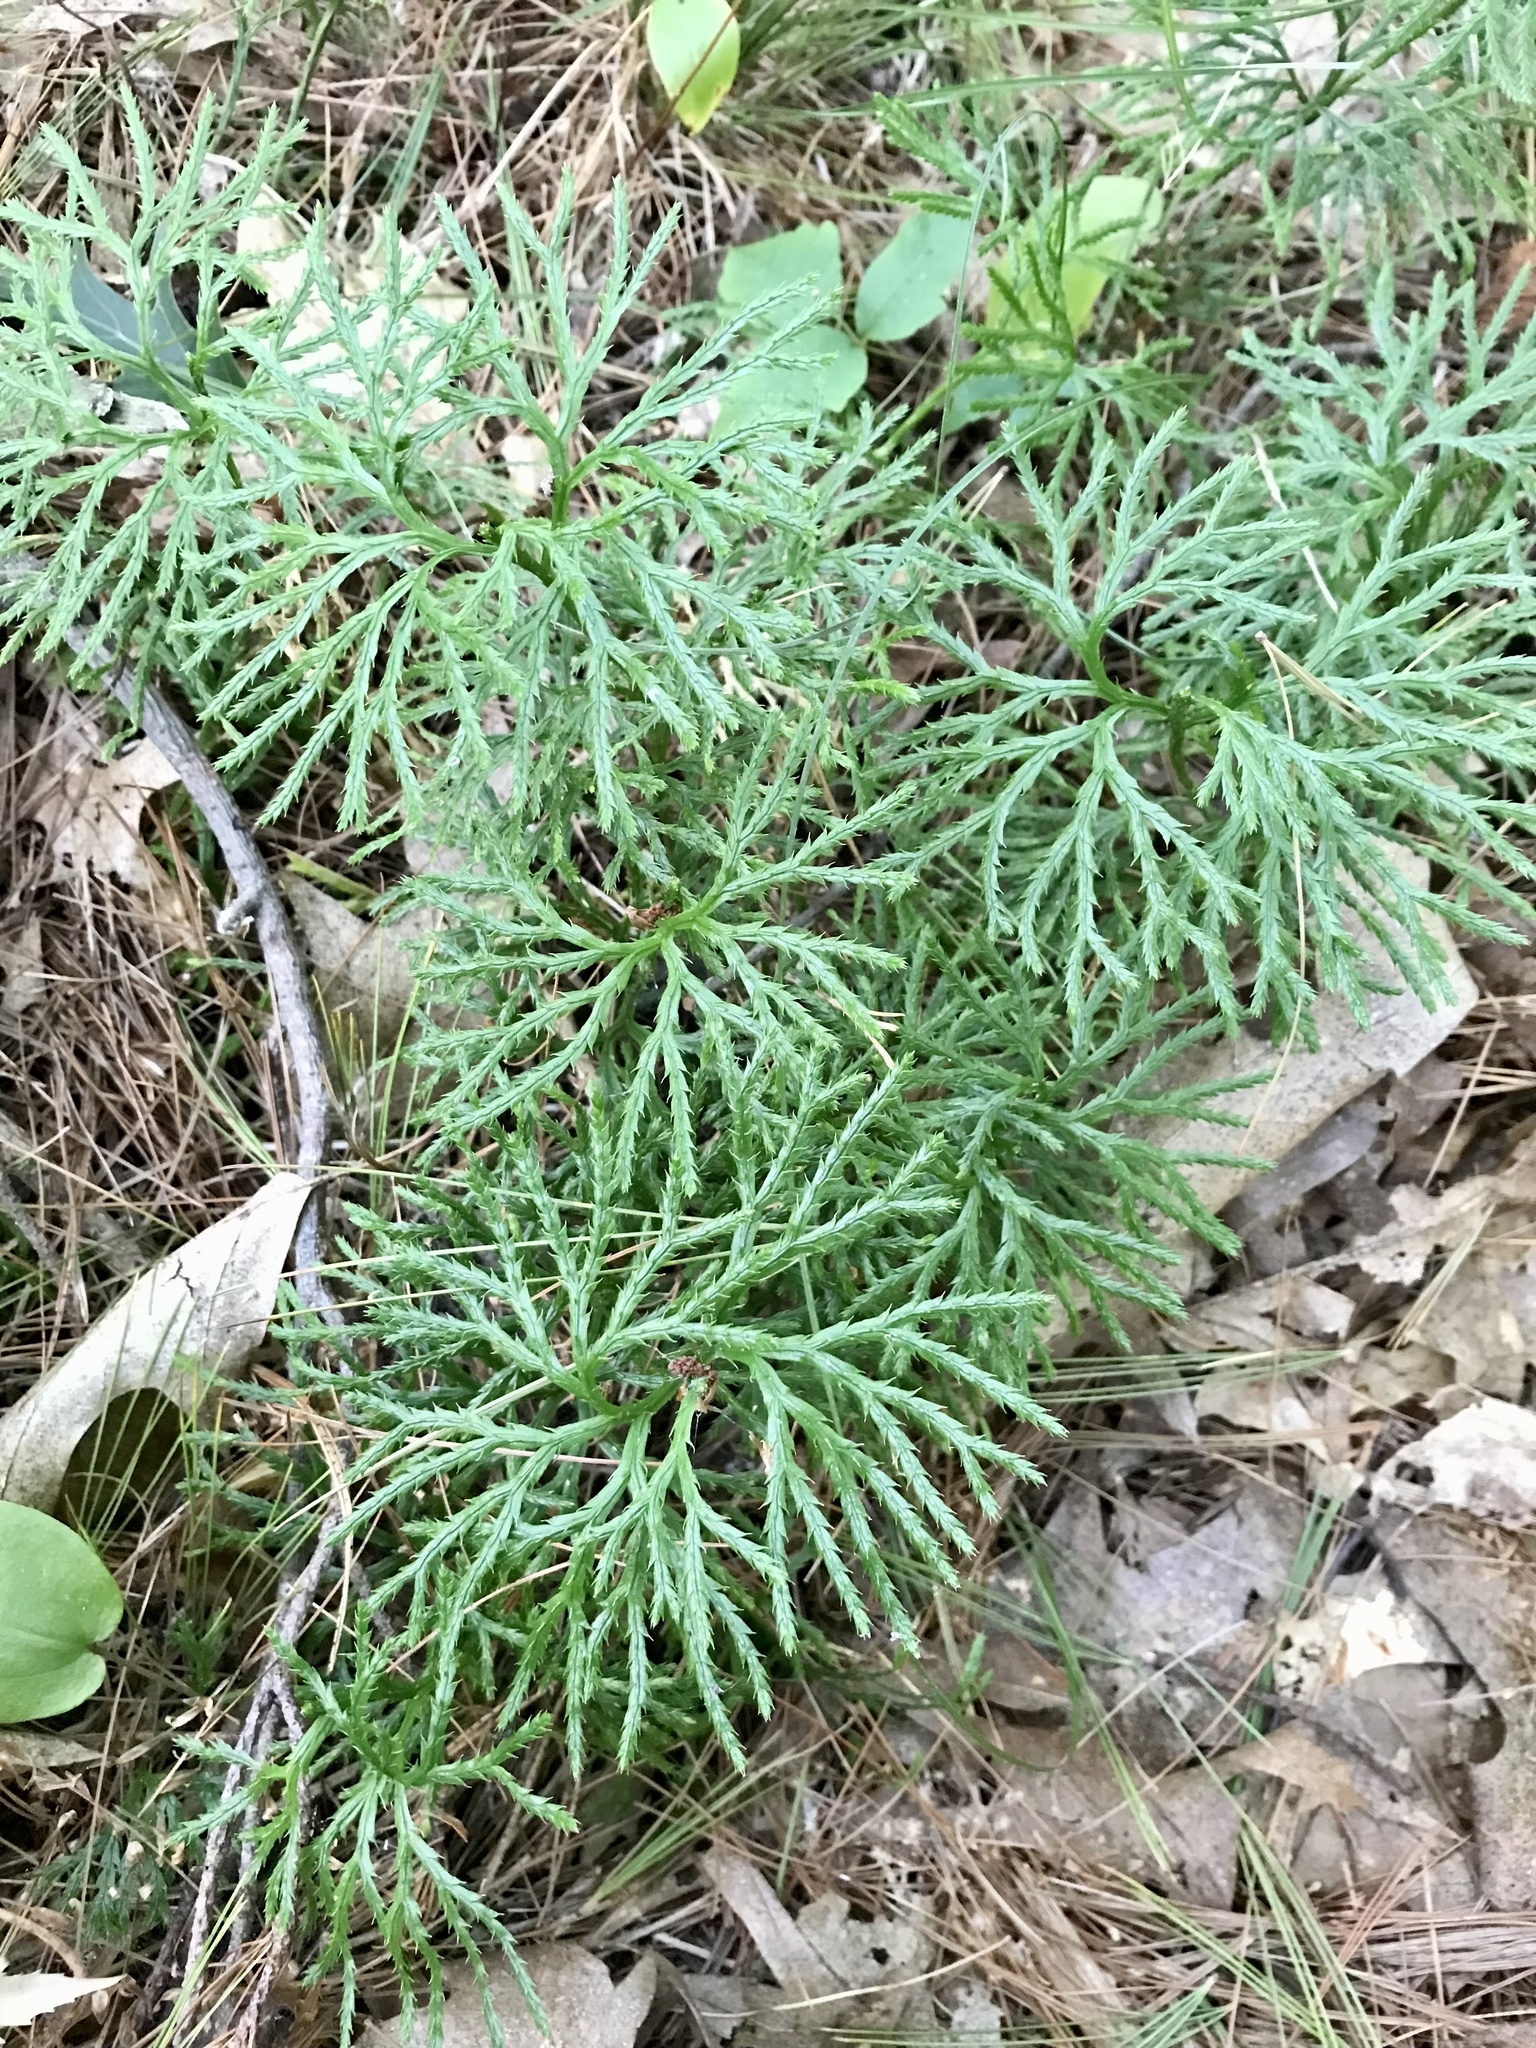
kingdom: Plantae
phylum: Tracheophyta
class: Lycopodiopsida
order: Lycopodiales
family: Lycopodiaceae
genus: Diphasiastrum
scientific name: Diphasiastrum digitatum
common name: Southern running-pine
